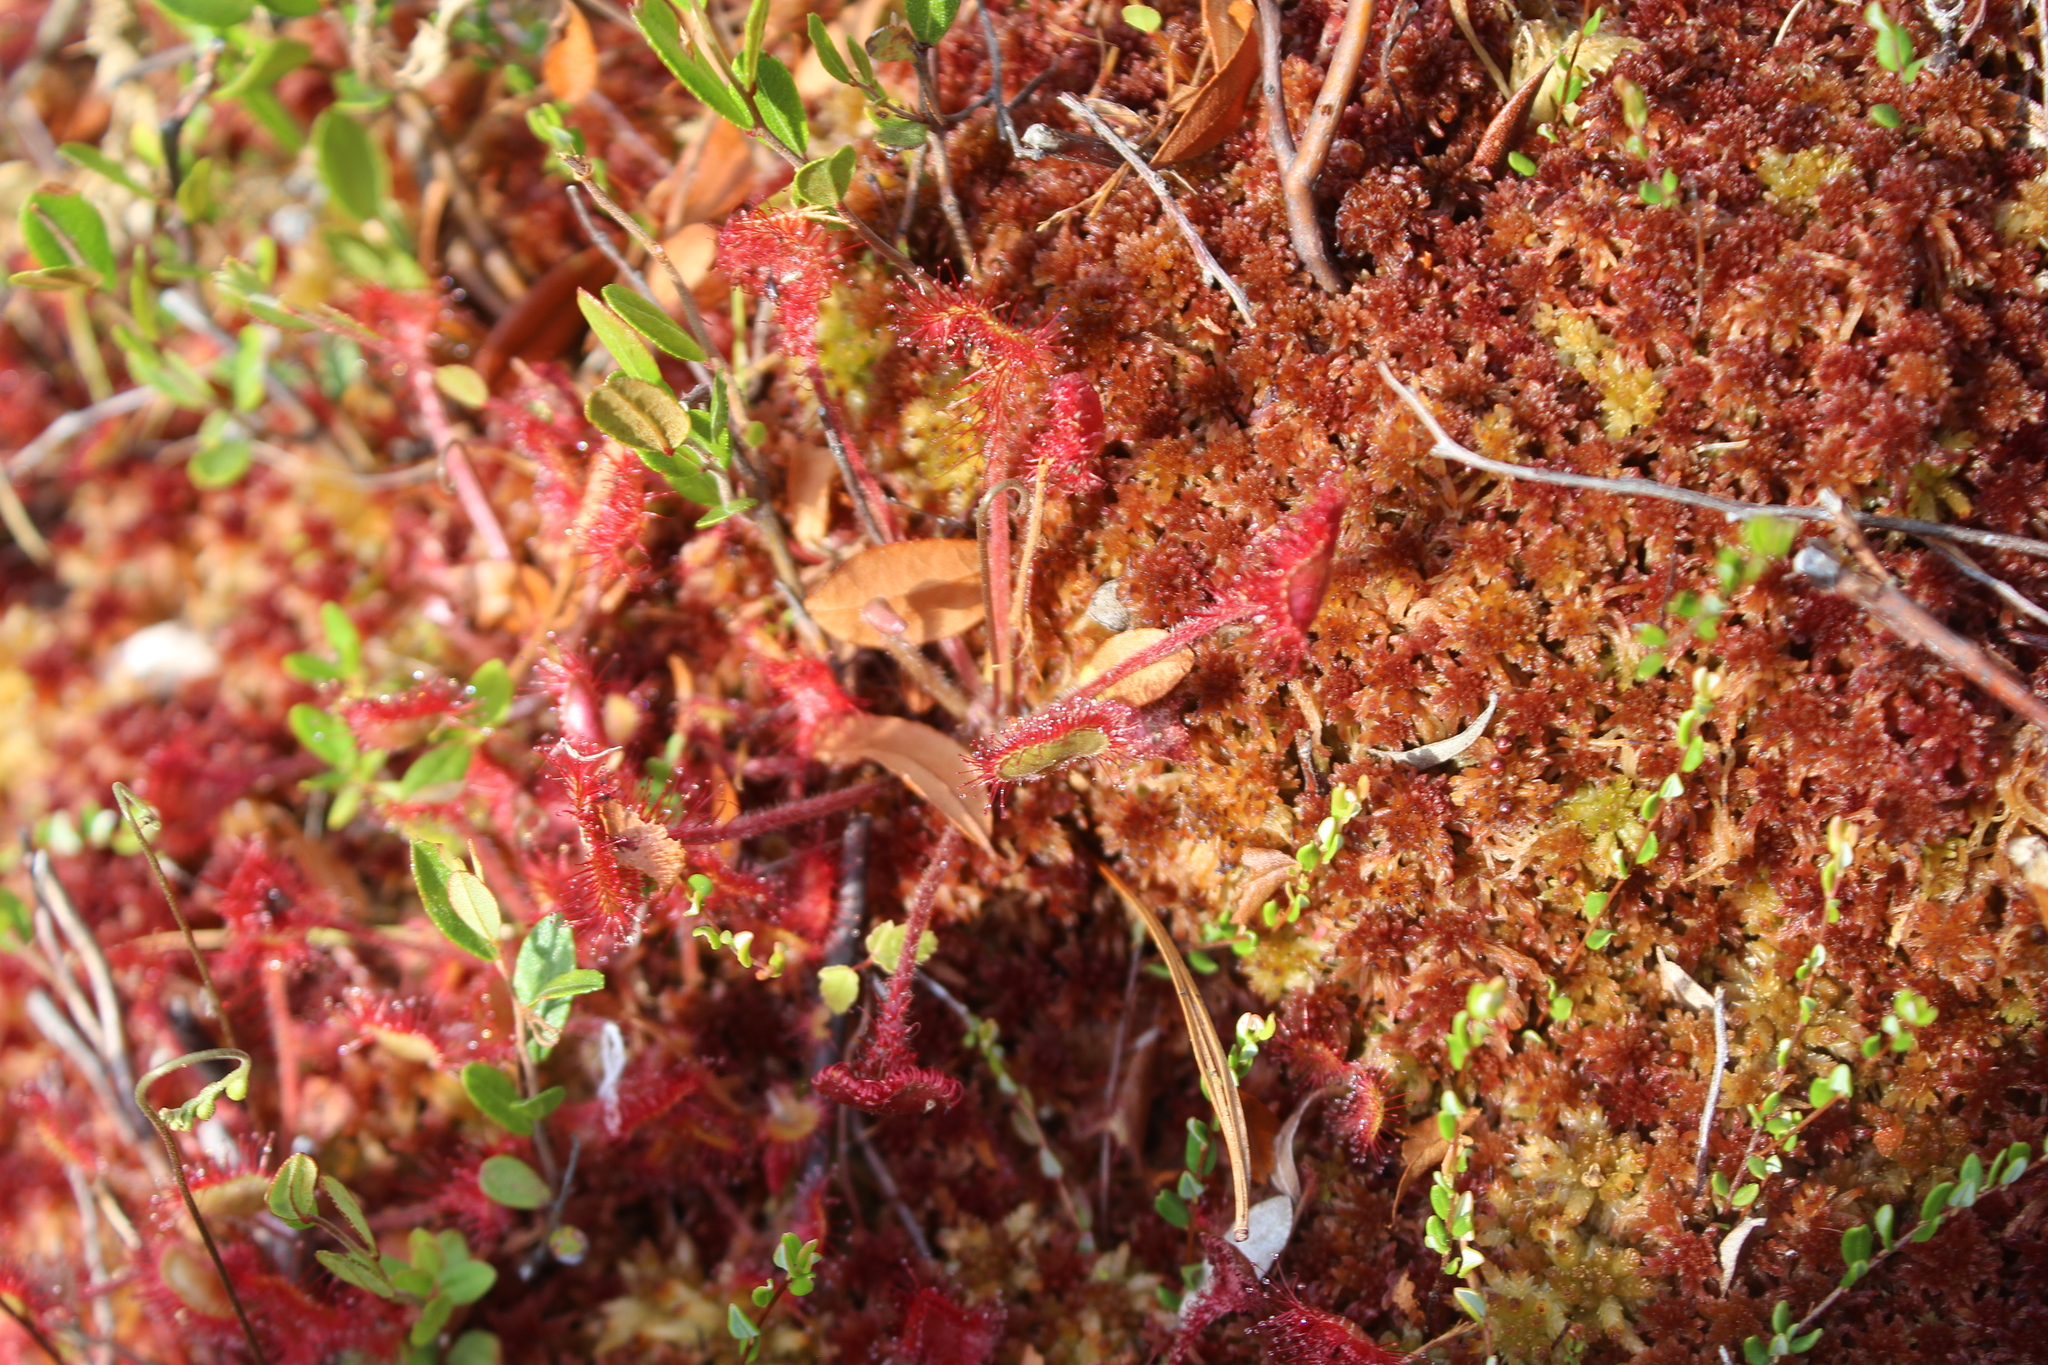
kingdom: Plantae
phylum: Tracheophyta
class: Magnoliopsida
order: Caryophyllales
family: Droseraceae
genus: Drosera
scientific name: Drosera rotundifolia
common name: Round-leaved sundew
